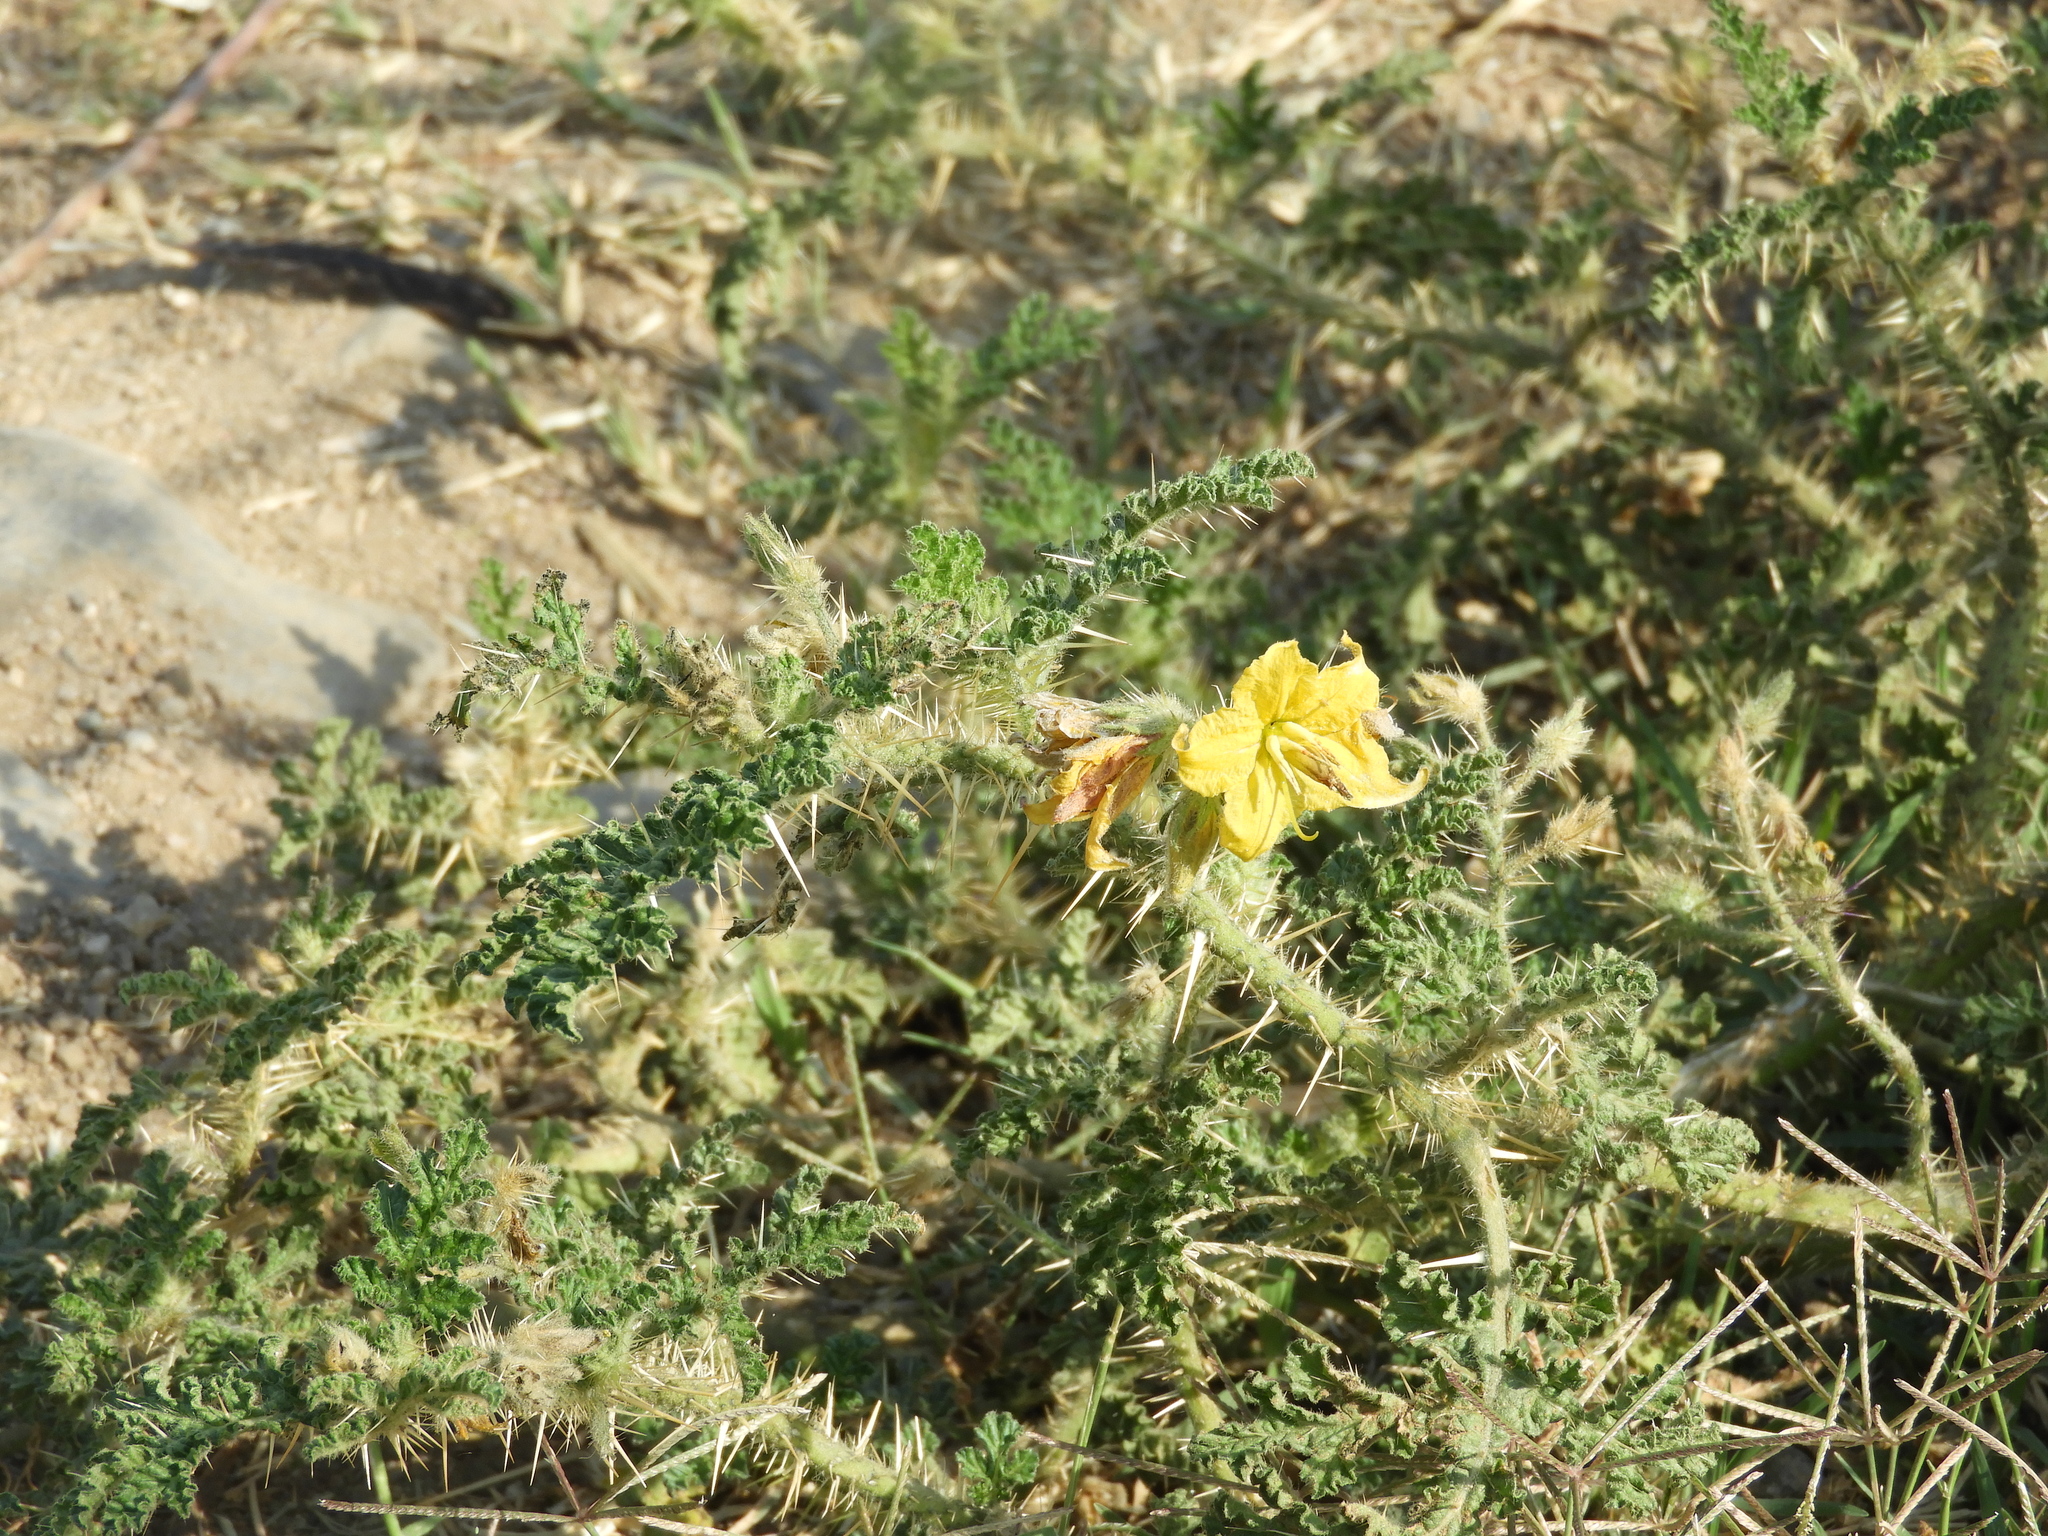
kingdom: Plantae
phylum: Tracheophyta
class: Magnoliopsida
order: Solanales
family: Solanaceae
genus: Solanum
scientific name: Solanum angustifolium
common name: Buffalobur nightshade
